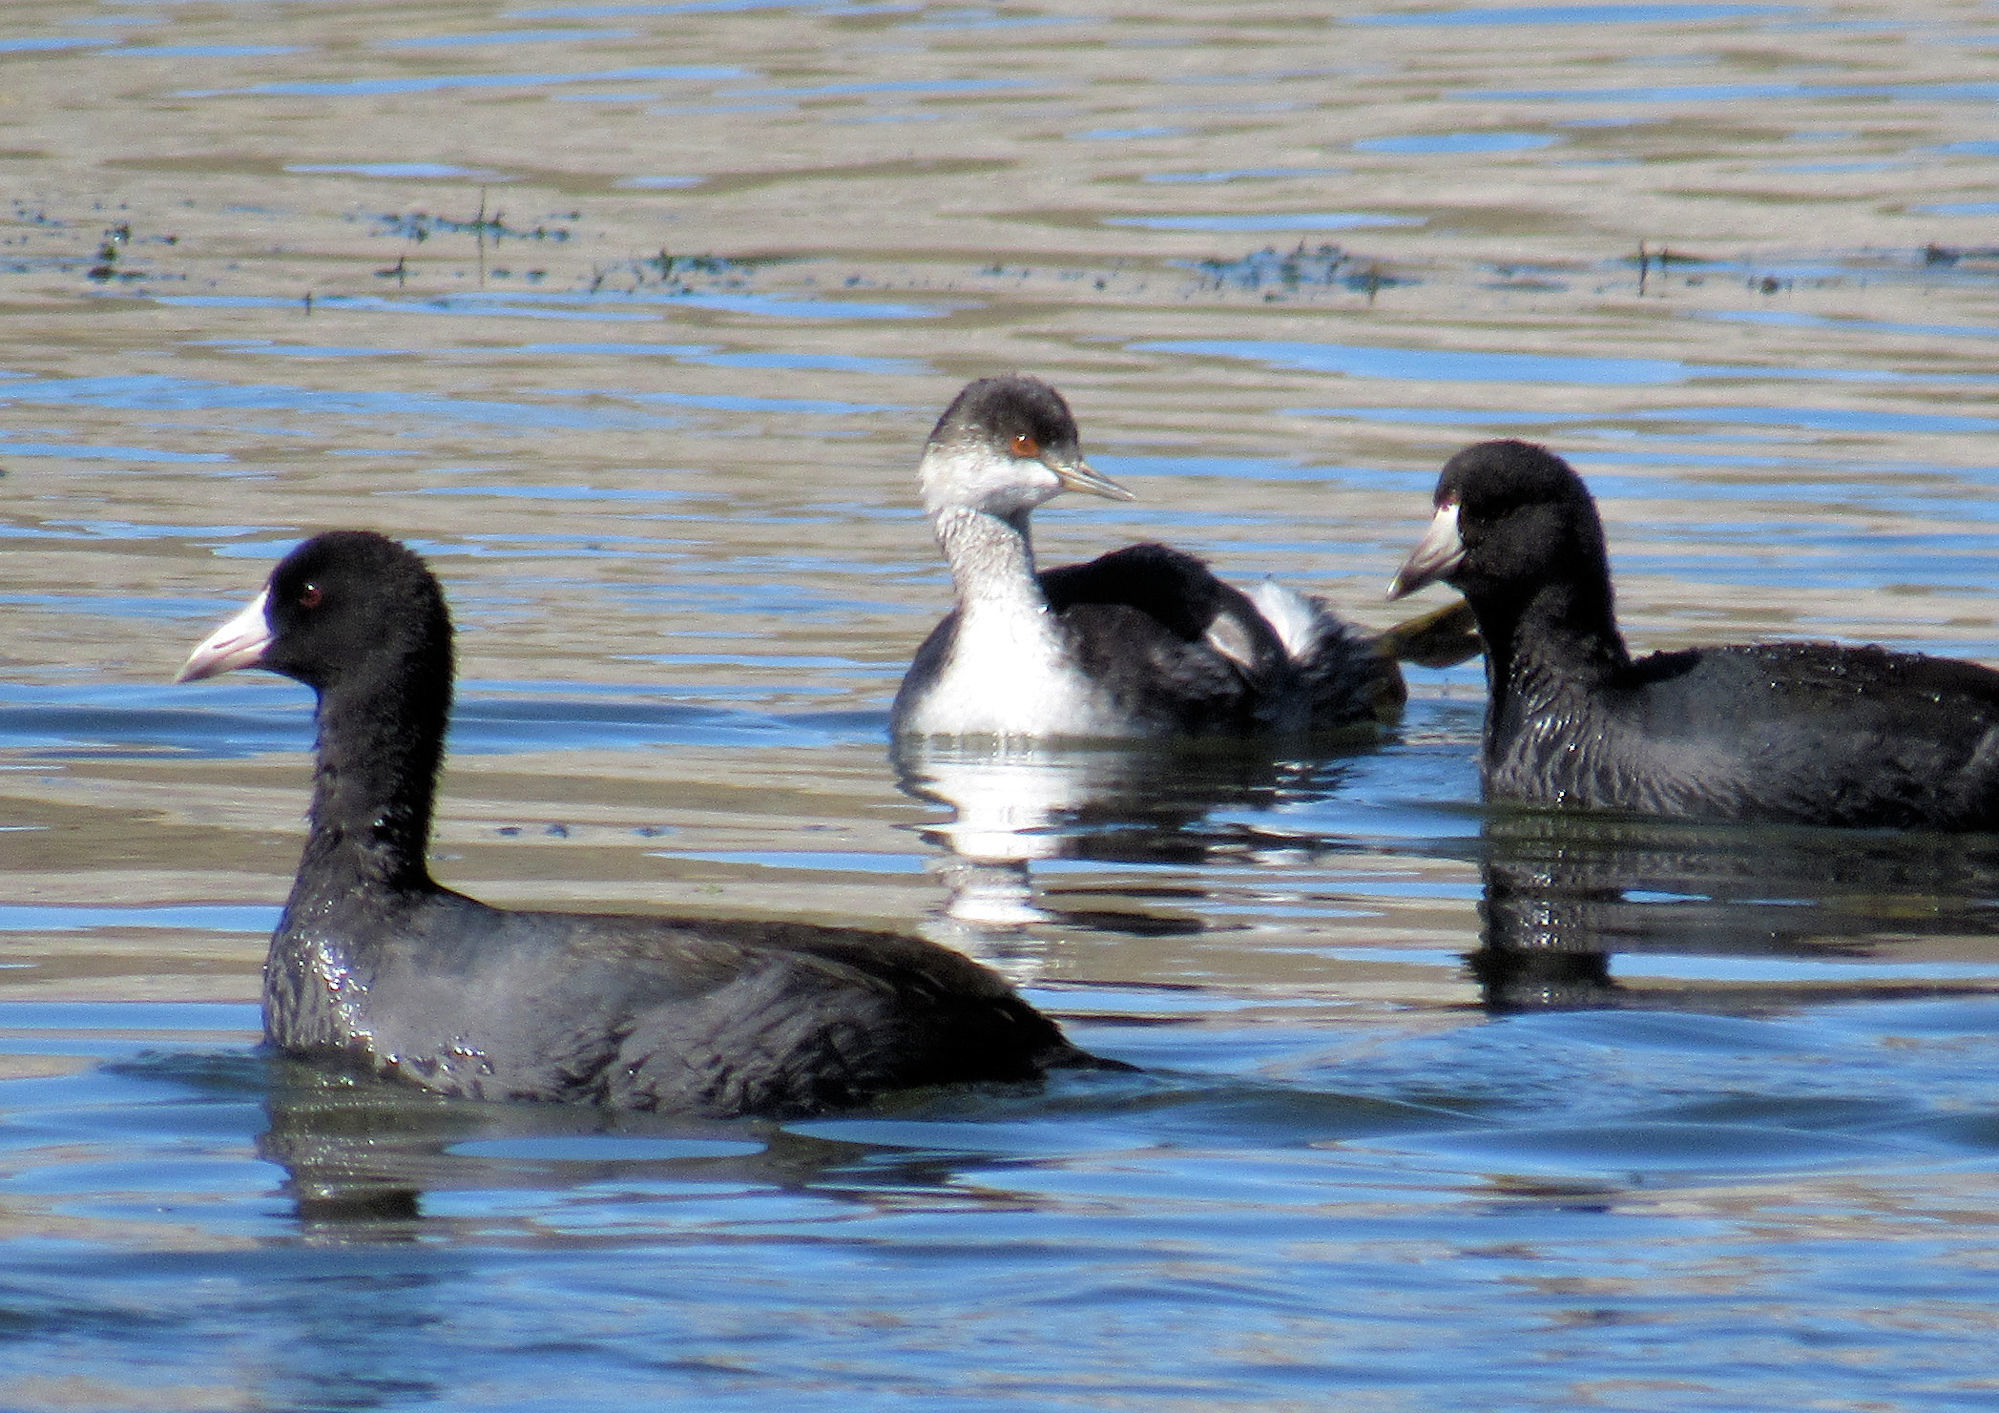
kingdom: Animalia
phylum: Chordata
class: Aves
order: Podicipediformes
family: Podicipedidae
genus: Podiceps
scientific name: Podiceps nigricollis
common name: Black-necked grebe
